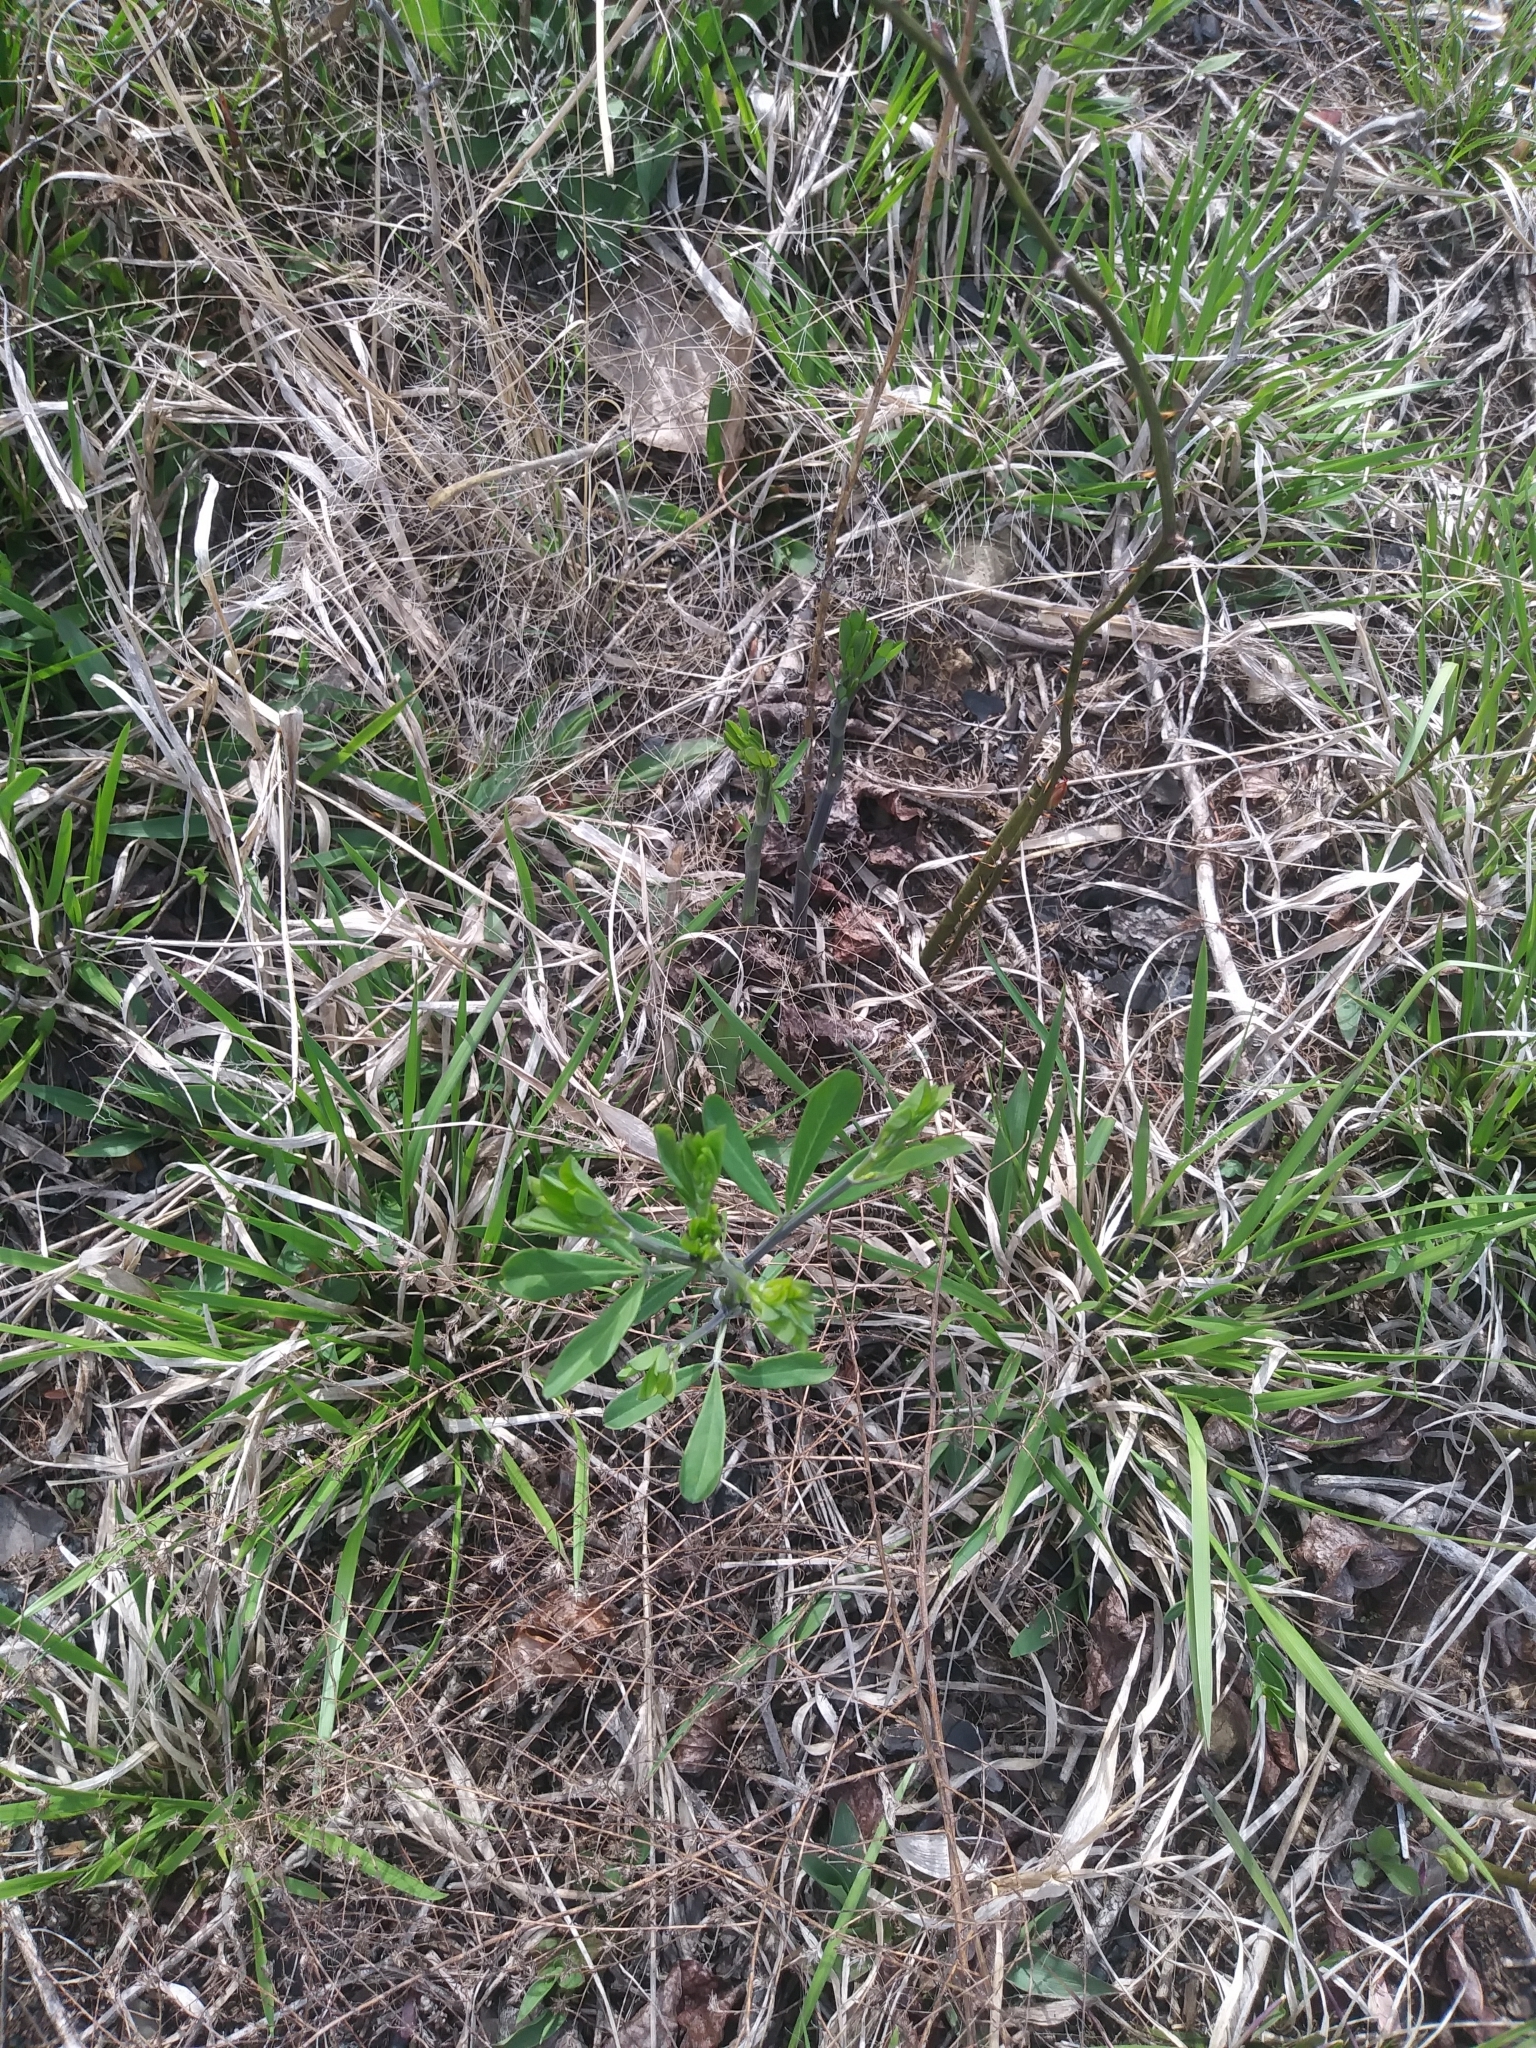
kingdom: Plantae
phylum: Tracheophyta
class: Magnoliopsida
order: Fabales
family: Fabaceae
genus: Baptisia
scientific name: Baptisia tinctoria
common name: Wild indigo
